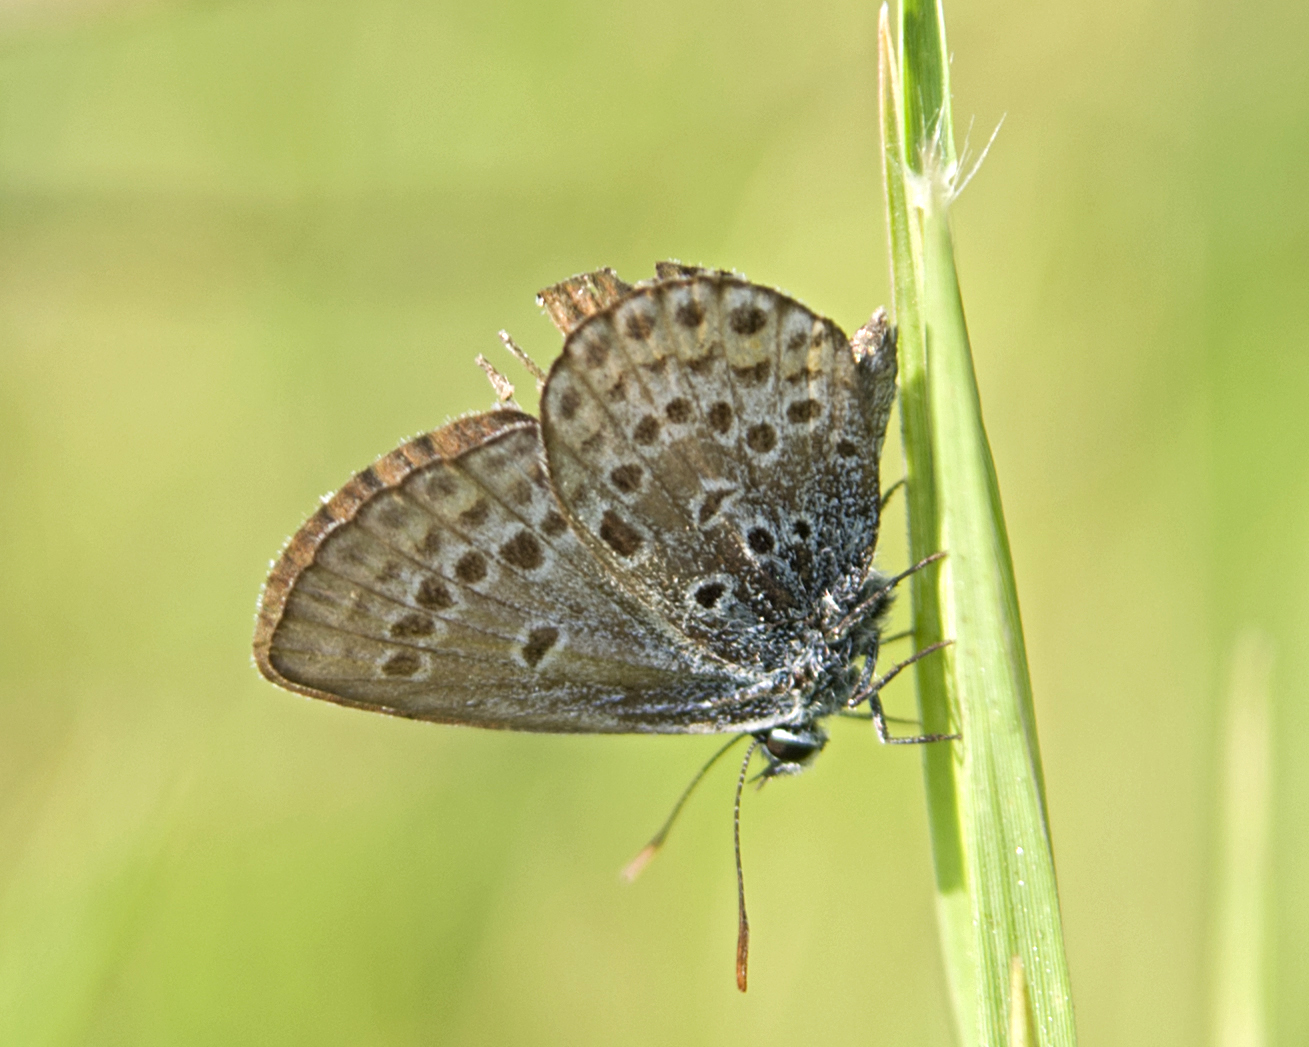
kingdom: Animalia
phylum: Arthropoda
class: Insecta
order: Lepidoptera
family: Lycaenidae
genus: Plebejus
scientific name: Plebejus argus
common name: Silver-studded blue
